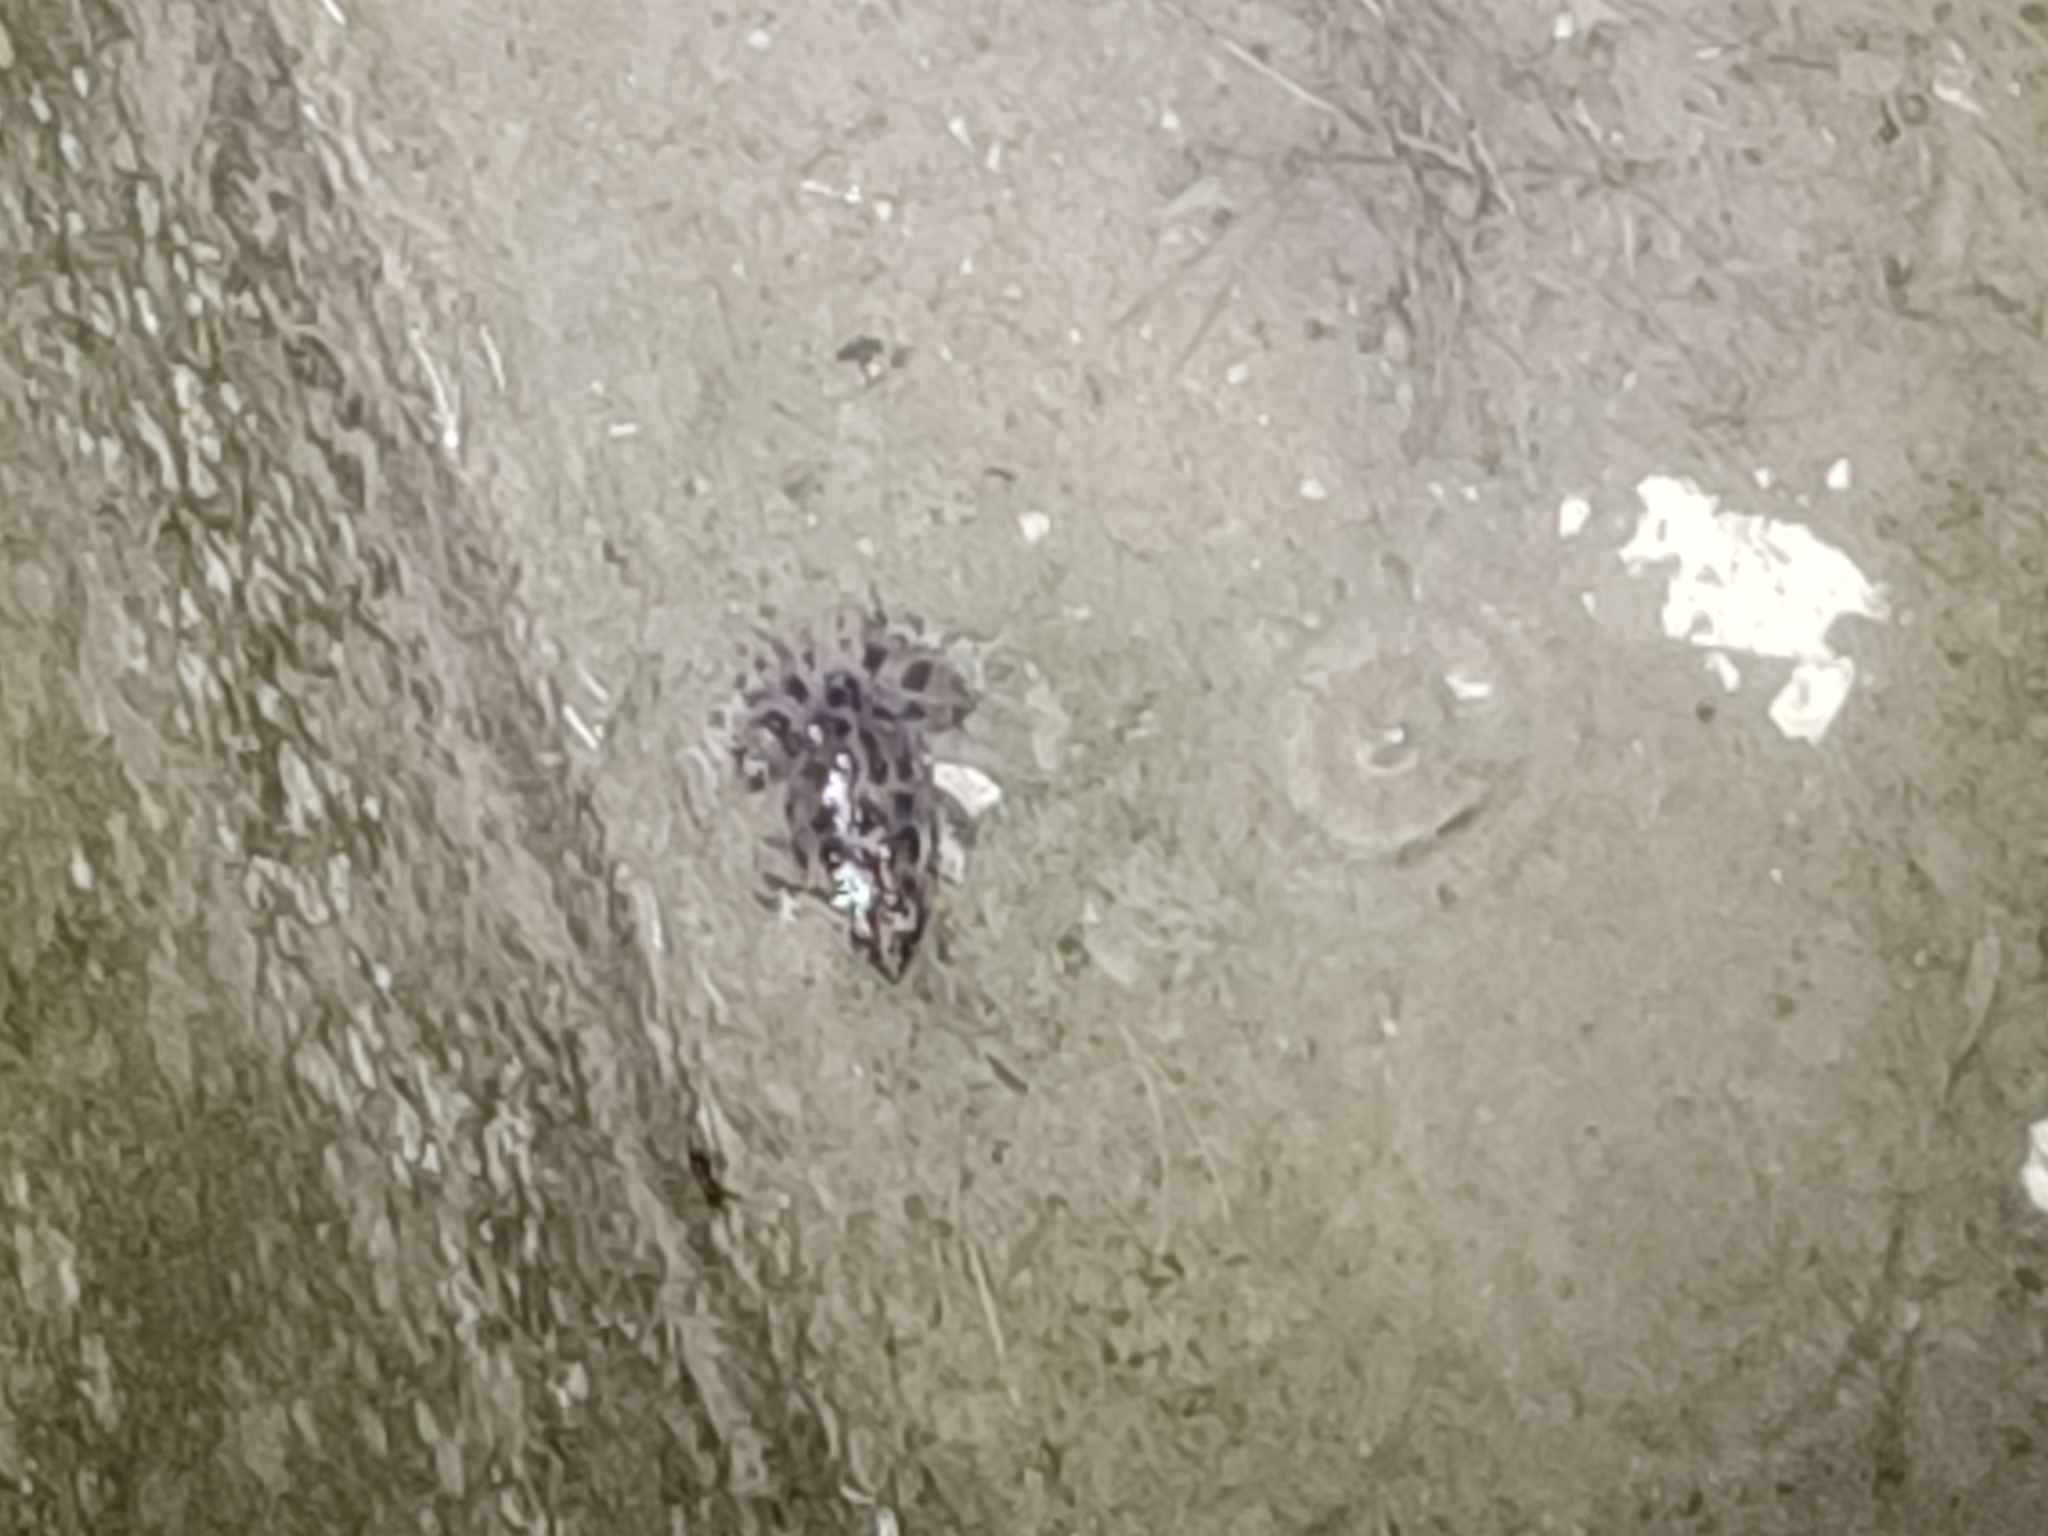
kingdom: Animalia
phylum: Chordata
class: Amphibia
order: Anura
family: Alytidae
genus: Discoglossus
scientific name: Discoglossus pictus
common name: Painted frog
